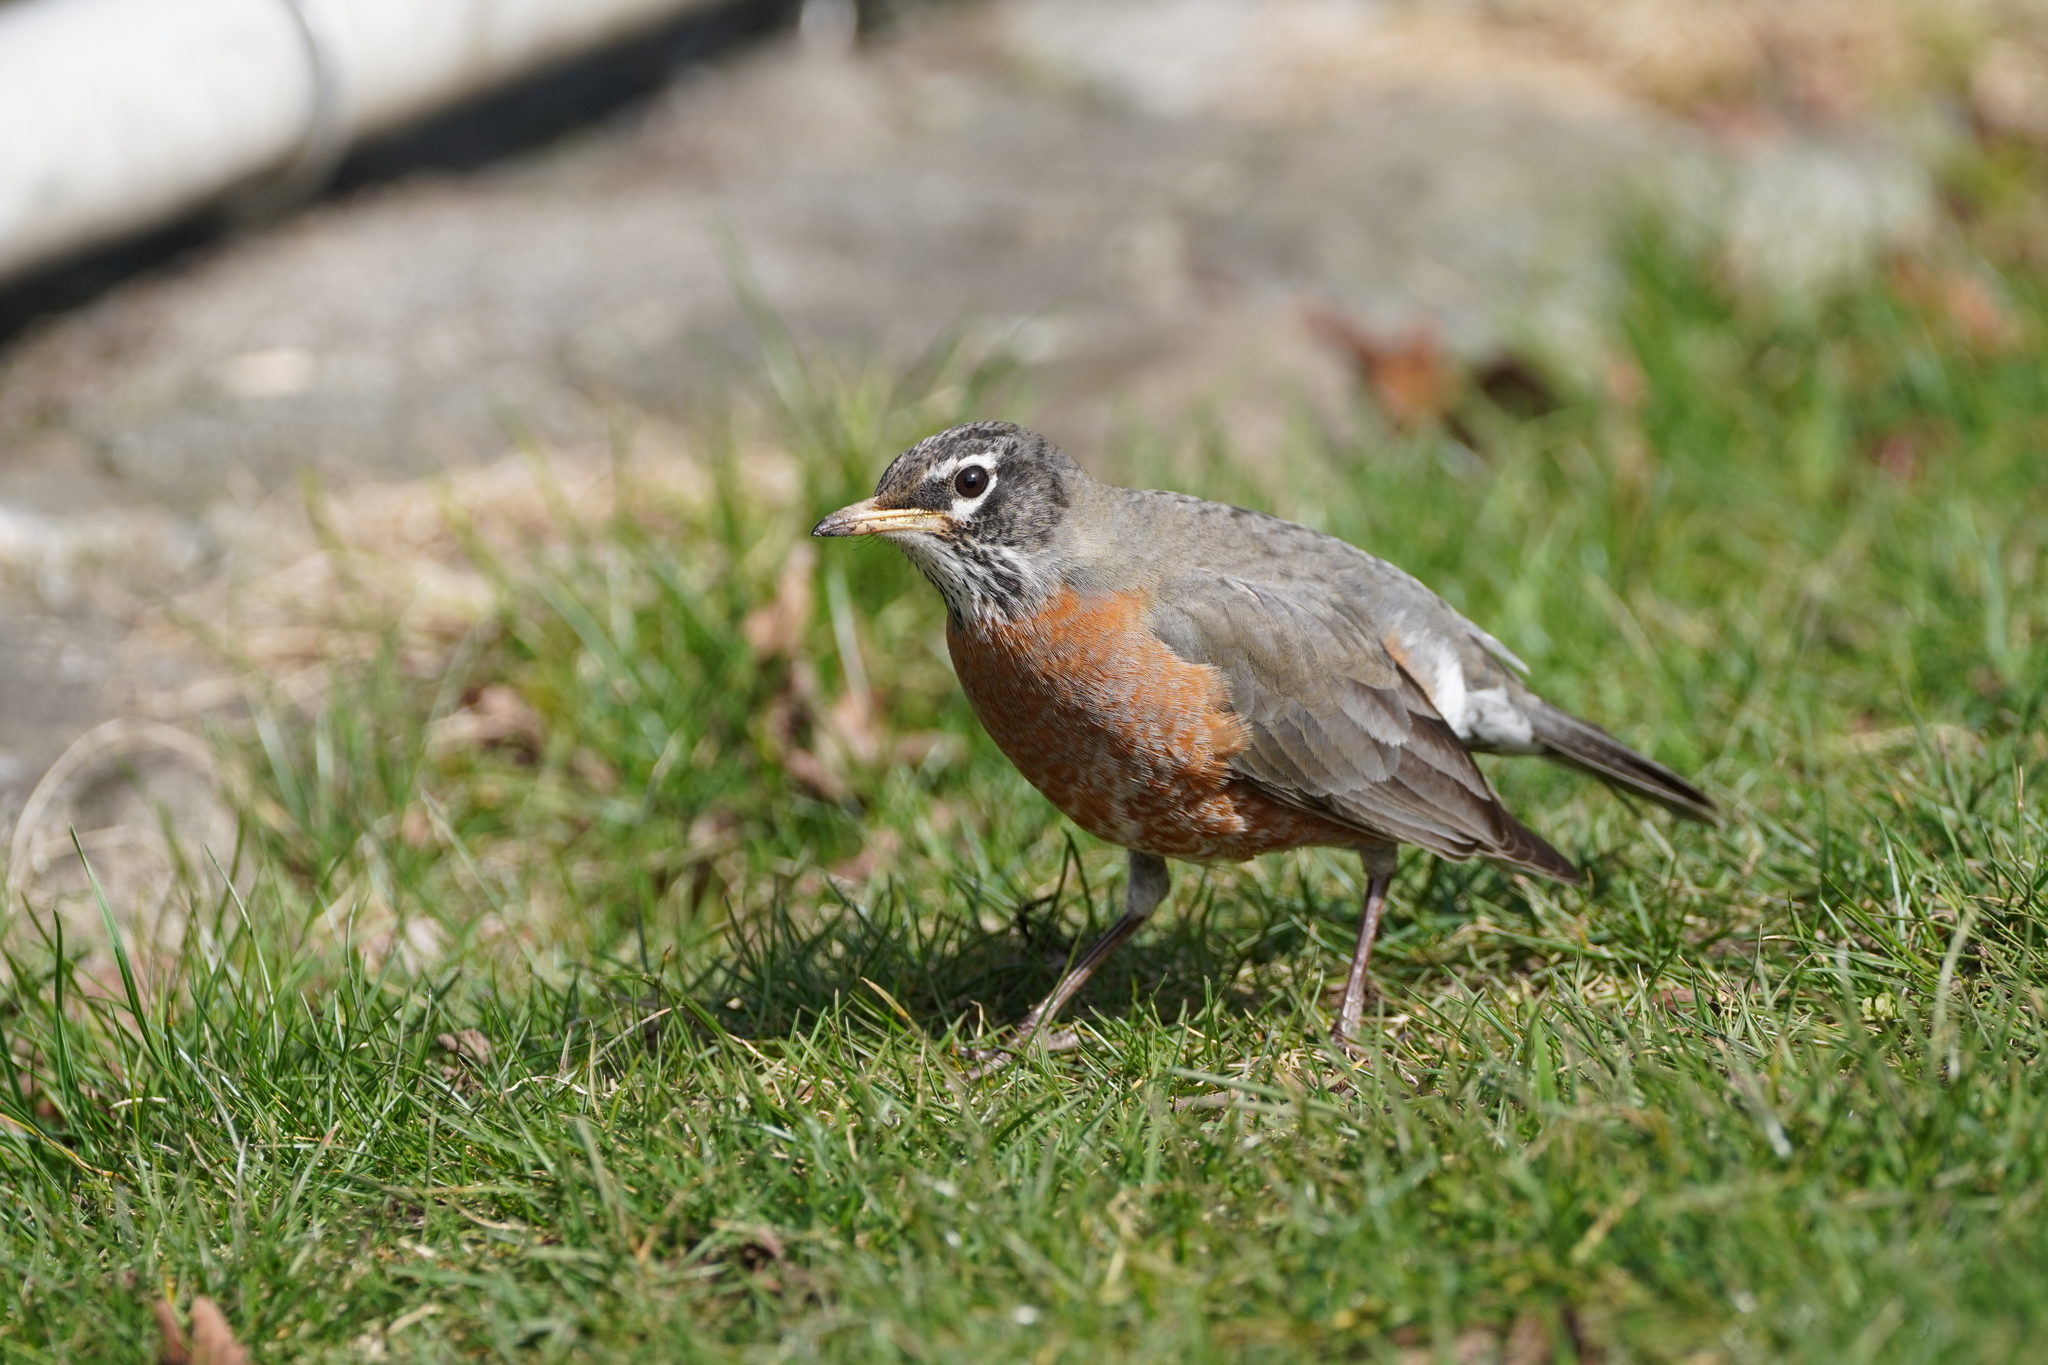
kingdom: Animalia
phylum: Chordata
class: Aves
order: Passeriformes
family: Turdidae
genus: Turdus
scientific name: Turdus migratorius
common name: American robin
